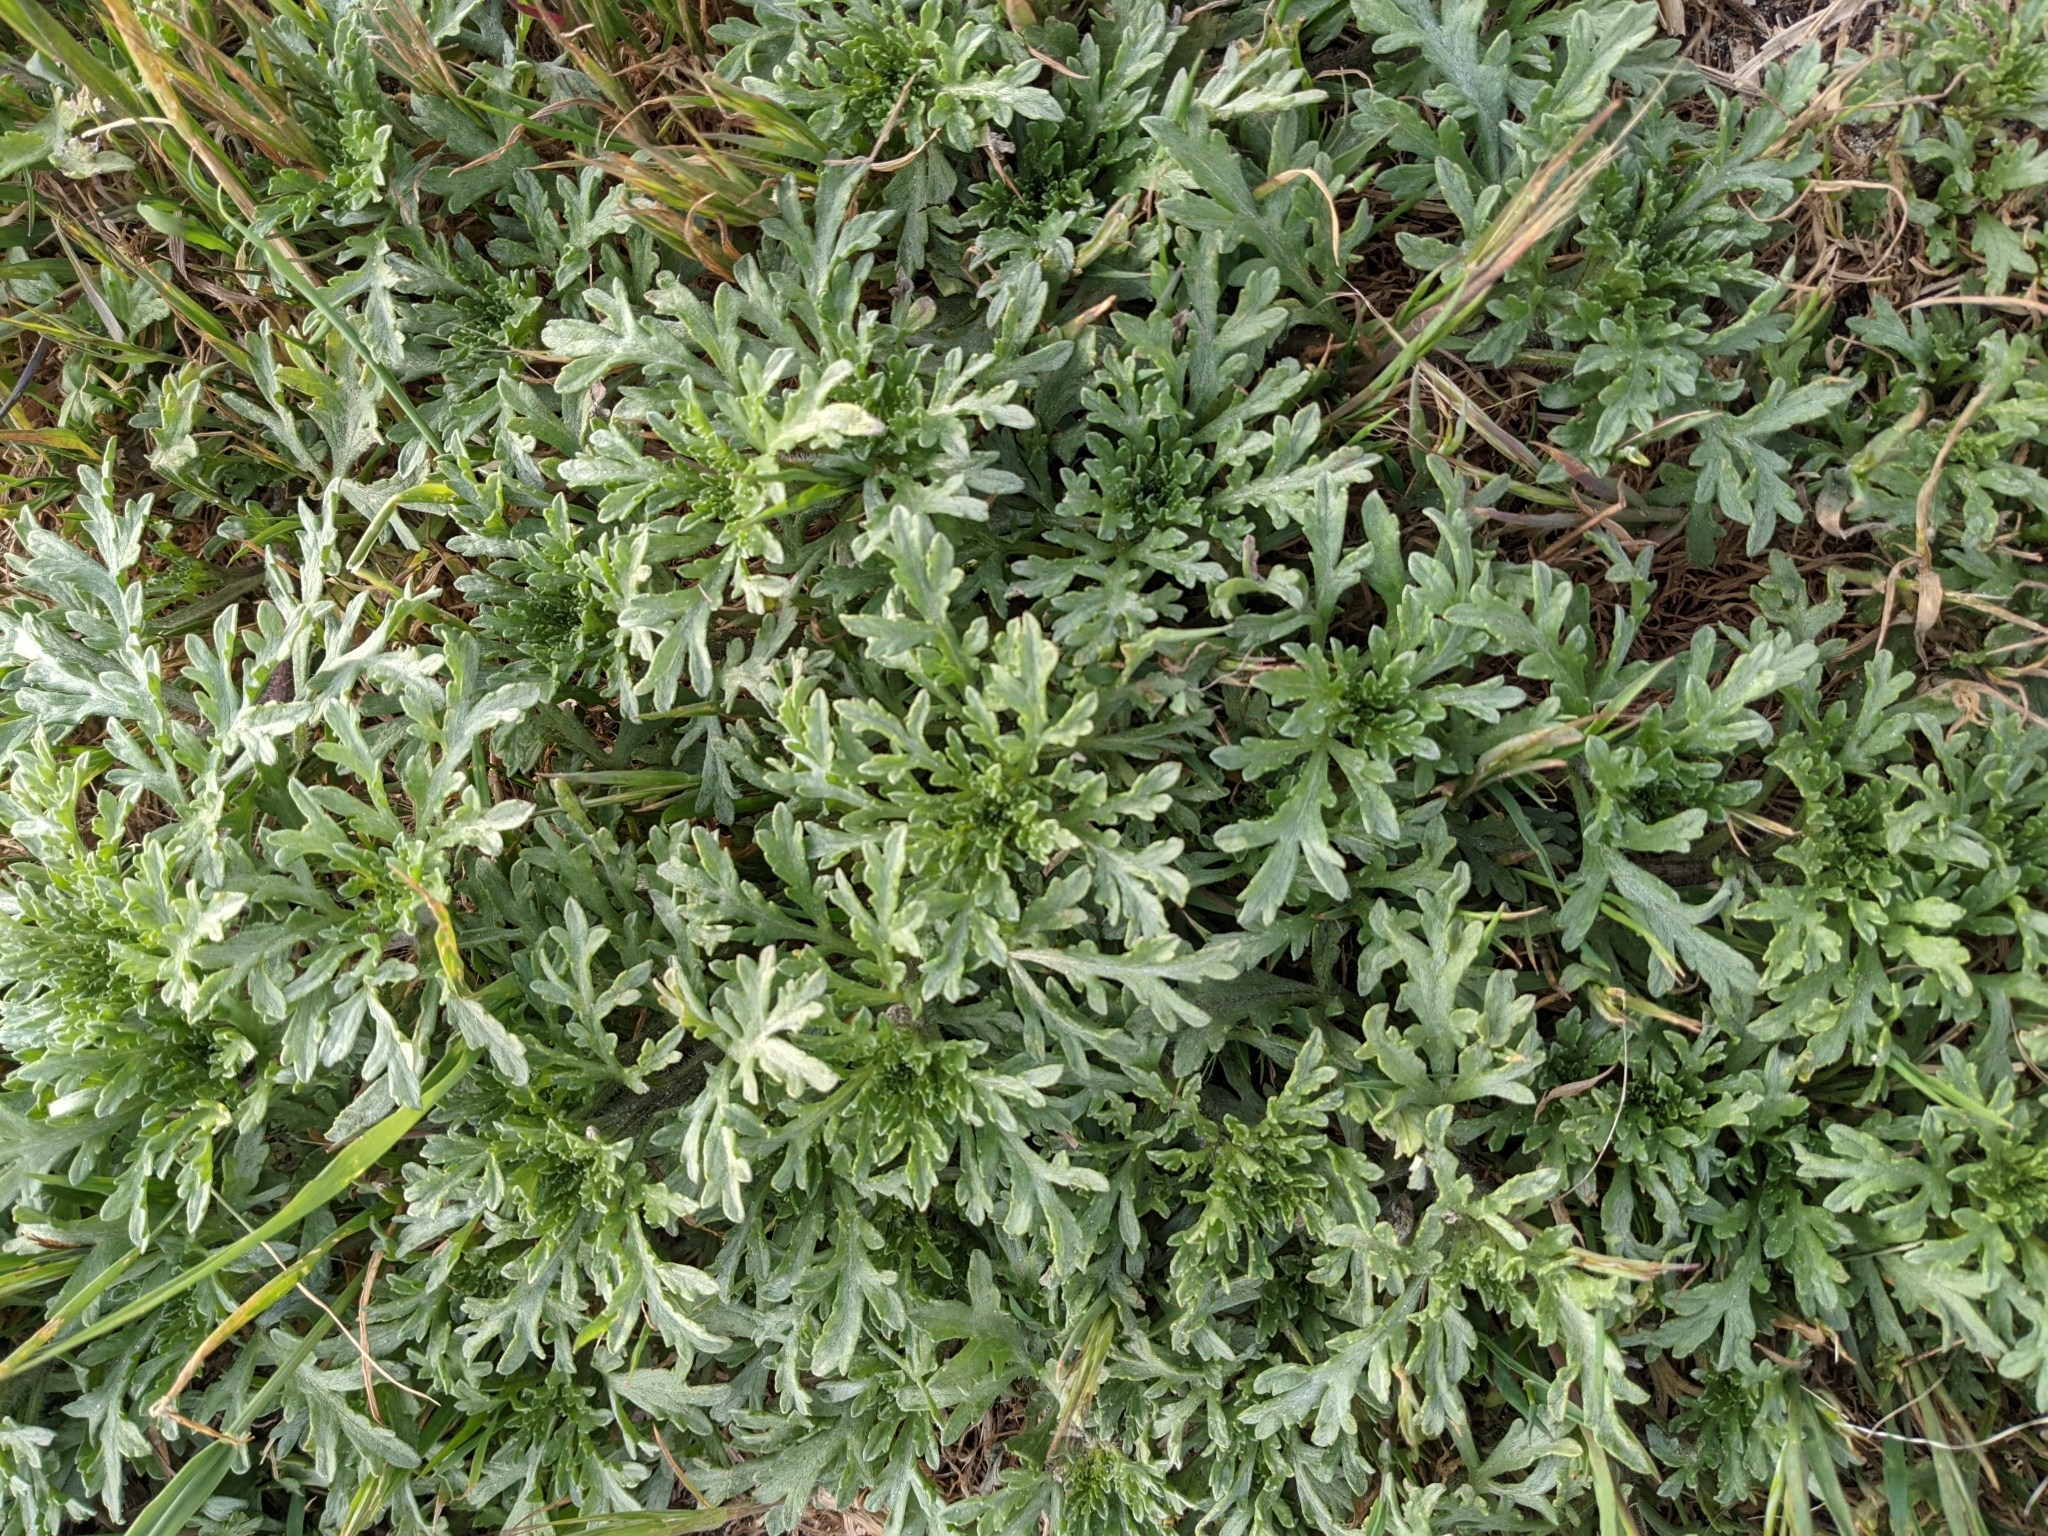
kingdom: Plantae
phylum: Tracheophyta
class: Magnoliopsida
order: Asterales
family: Asteraceae
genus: Ambrosia
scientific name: Ambrosia chamissonis
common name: Beachbur
